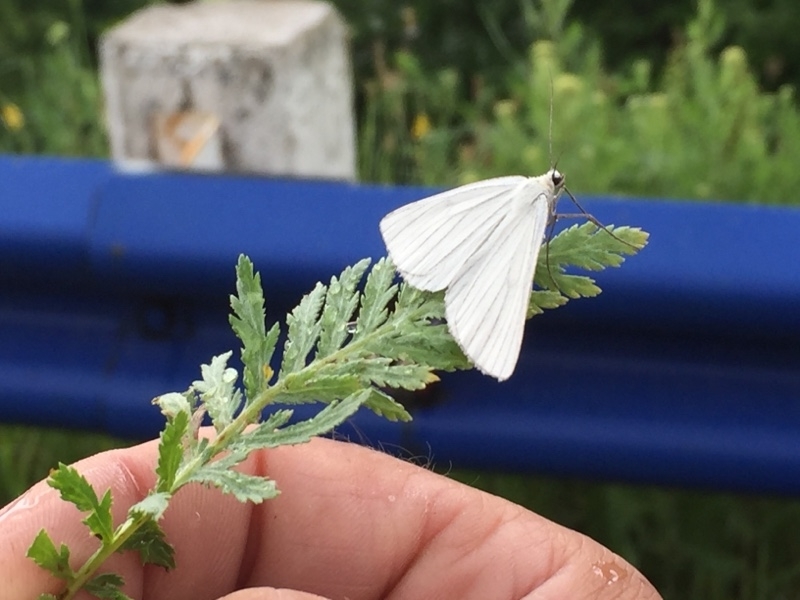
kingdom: Animalia
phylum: Arthropoda
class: Insecta
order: Lepidoptera
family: Geometridae
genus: Siona
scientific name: Siona lineata
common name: Black-veined moth
